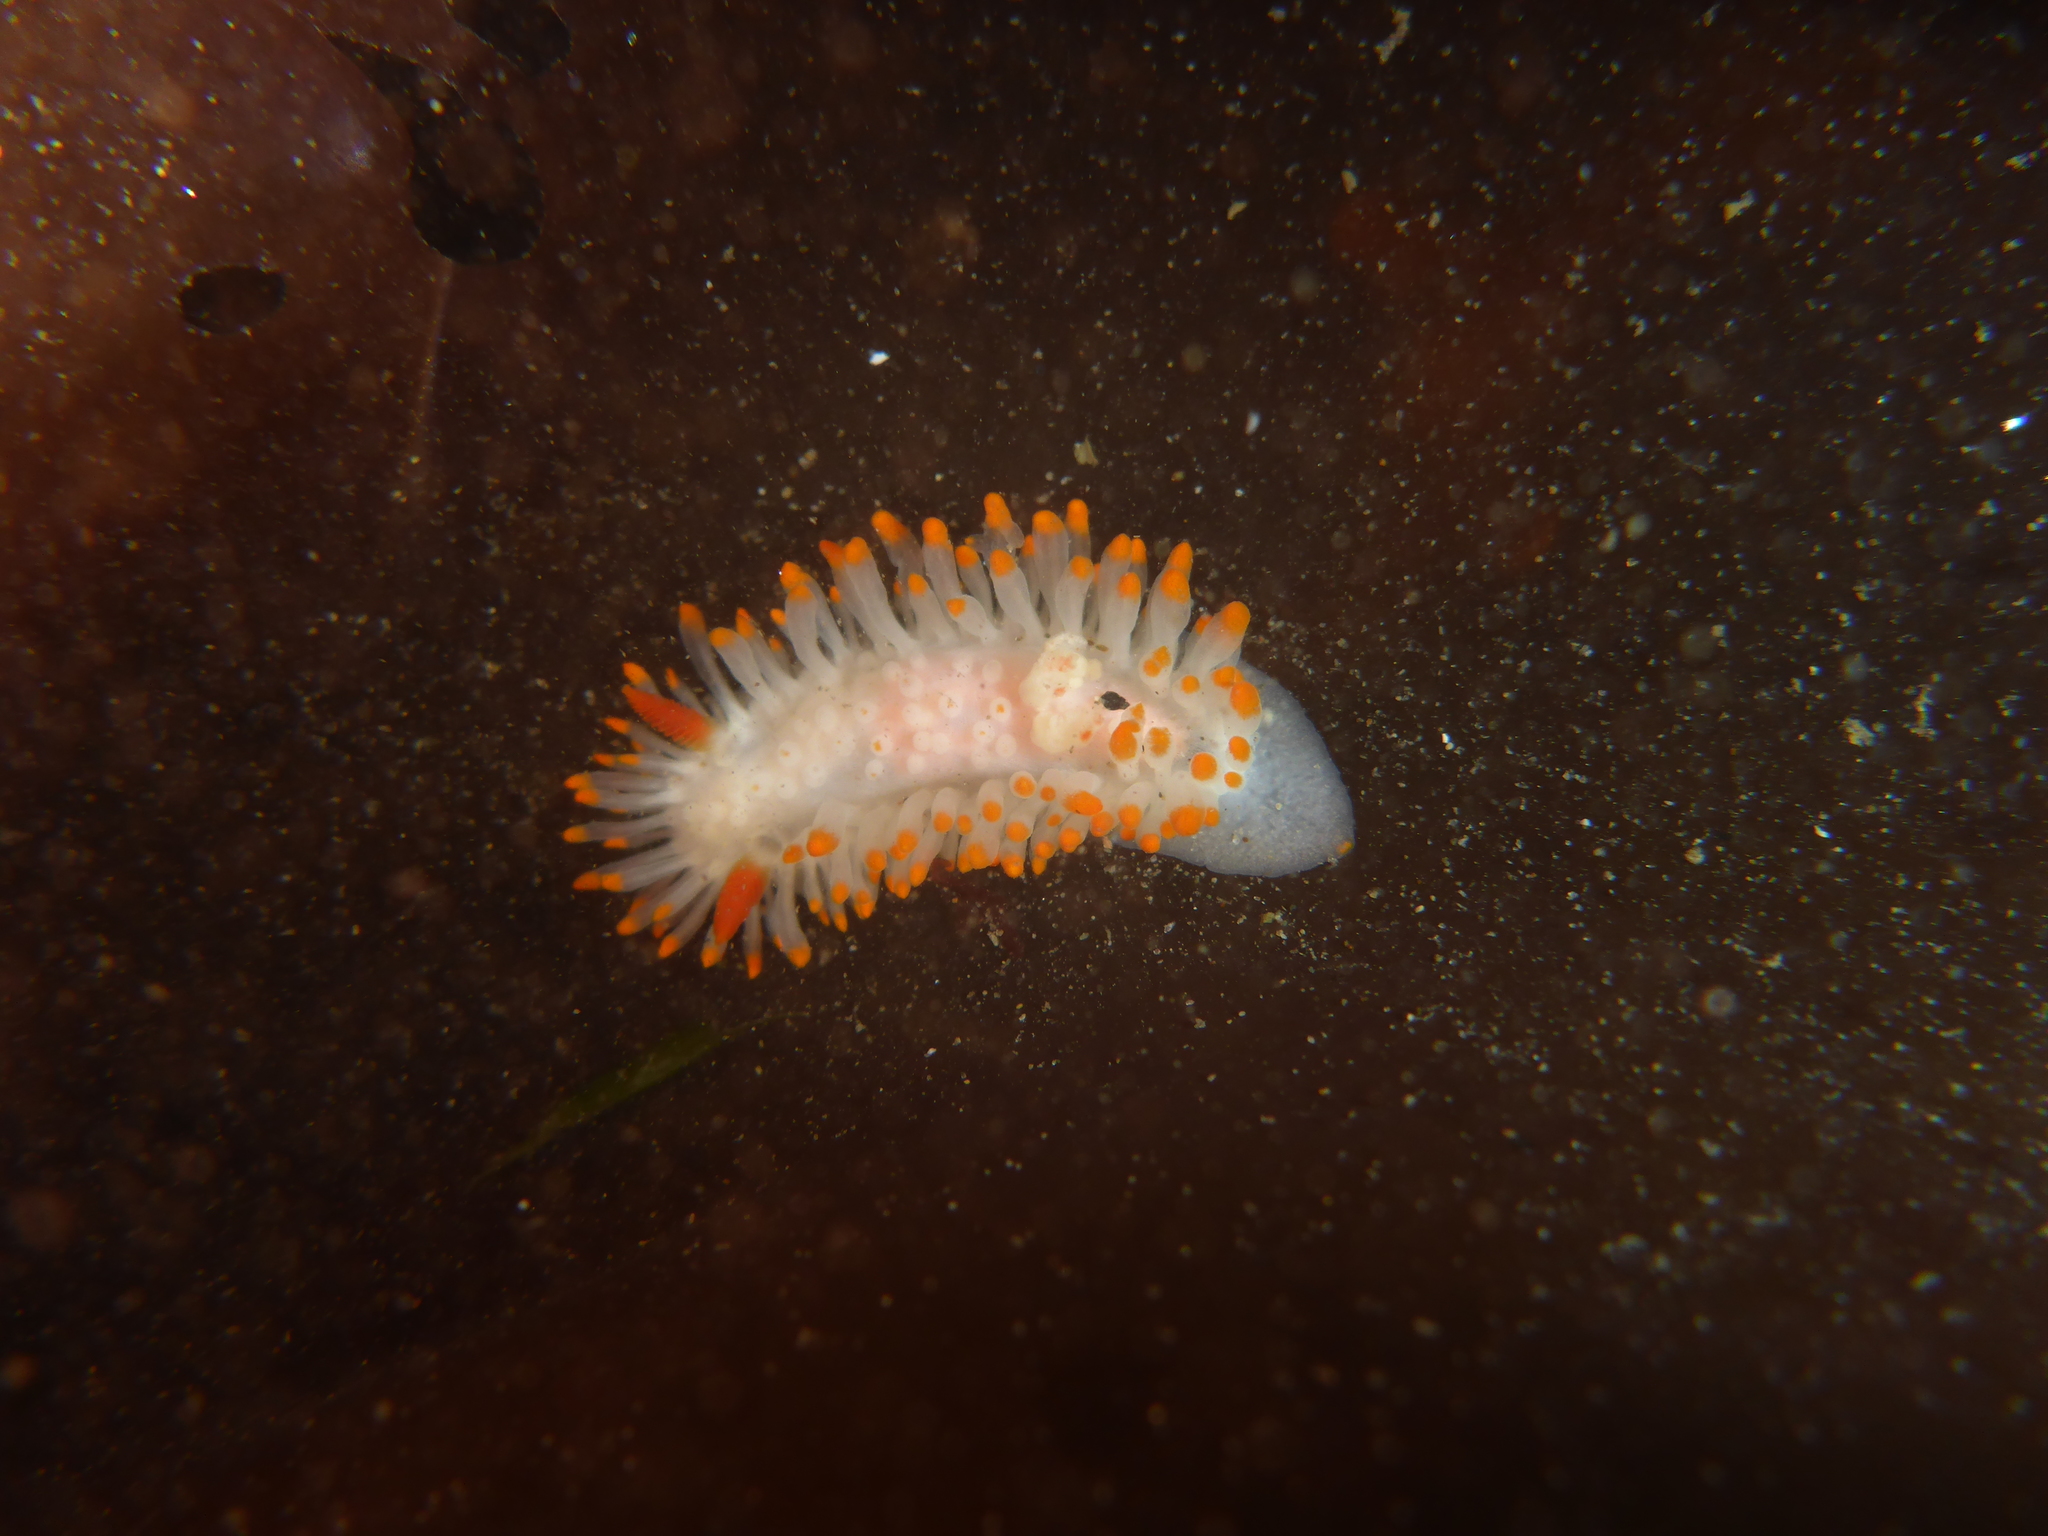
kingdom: Animalia
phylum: Mollusca
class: Gastropoda
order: Nudibranchia
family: Polyceridae
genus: Limacia
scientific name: Limacia cockerelli
